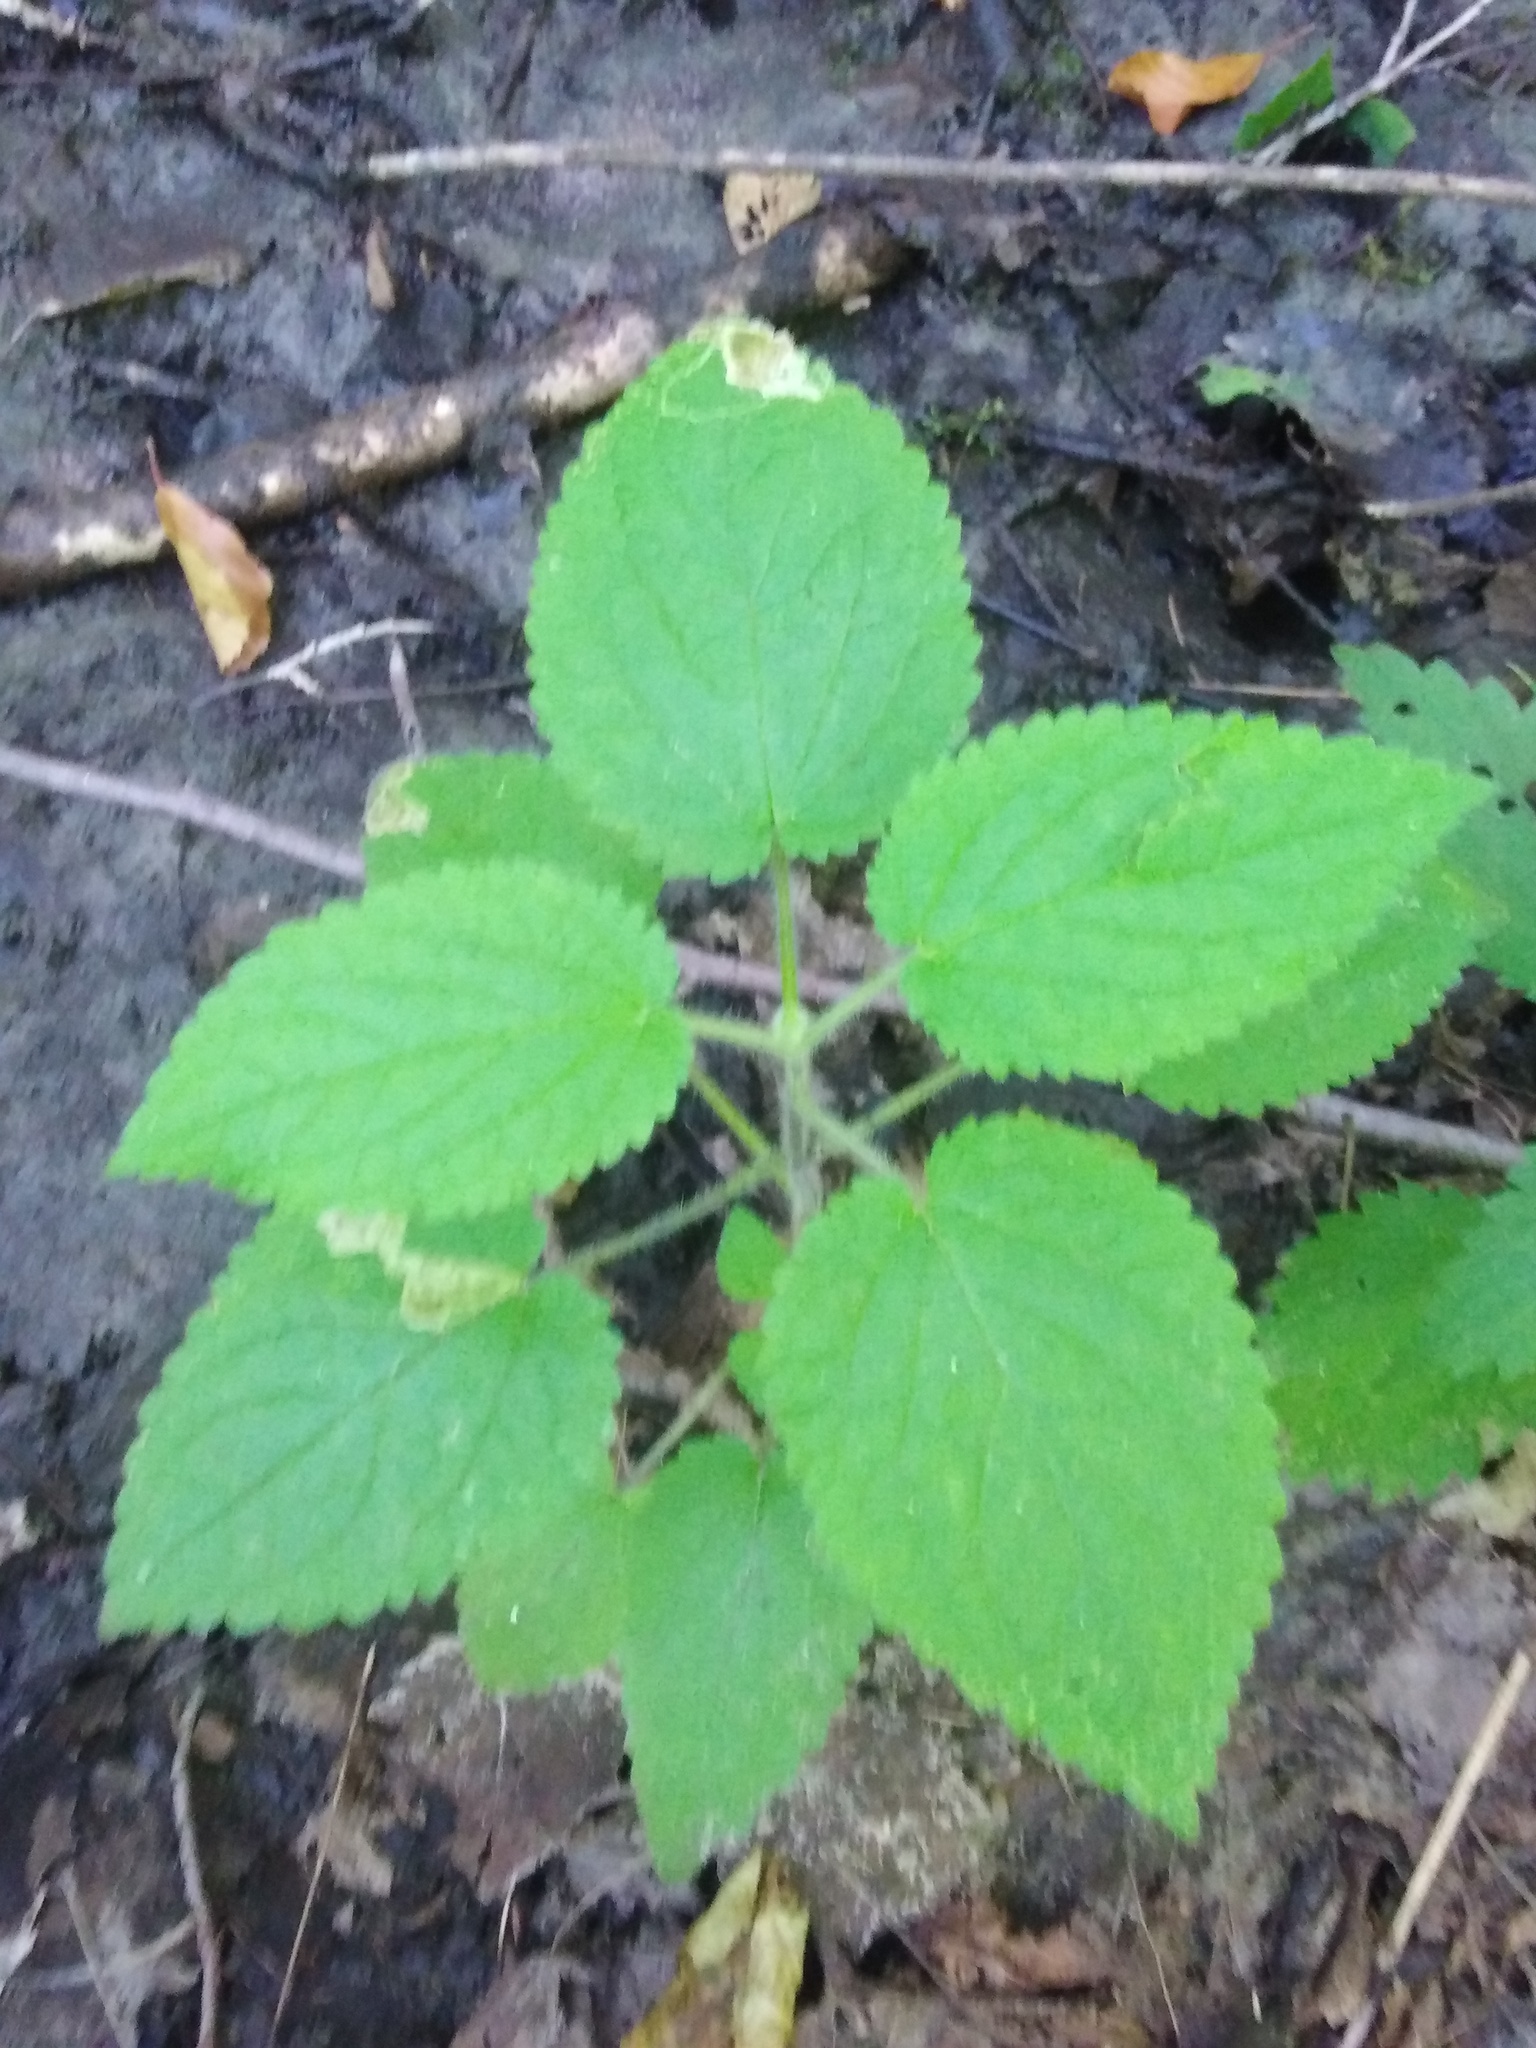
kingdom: Plantae
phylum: Tracheophyta
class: Magnoliopsida
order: Lamiales
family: Lamiaceae
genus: Stachys
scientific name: Stachys sylvatica
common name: Hedge woundwort
